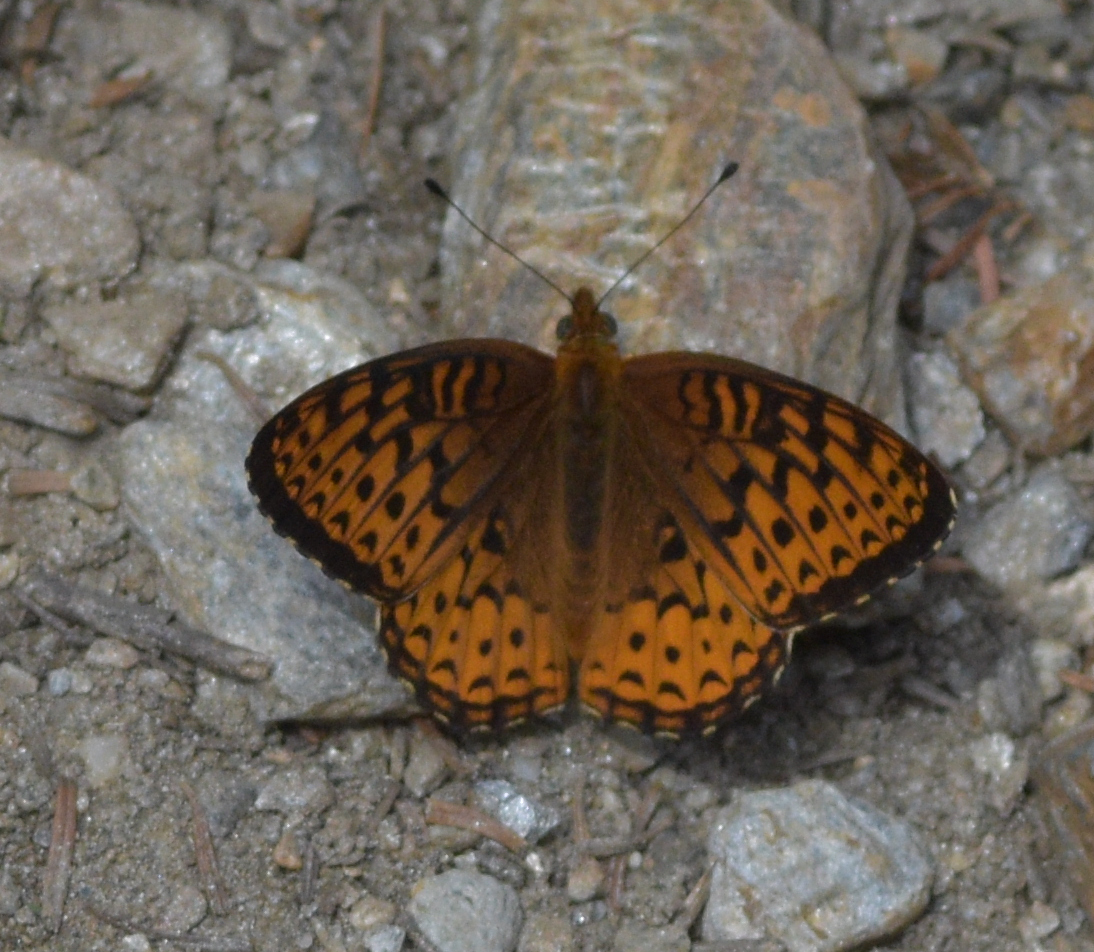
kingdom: Animalia
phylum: Arthropoda
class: Insecta
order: Lepidoptera
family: Nymphalidae
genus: Speyeria
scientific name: Speyeria atlantis
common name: Atlantis fritillary
